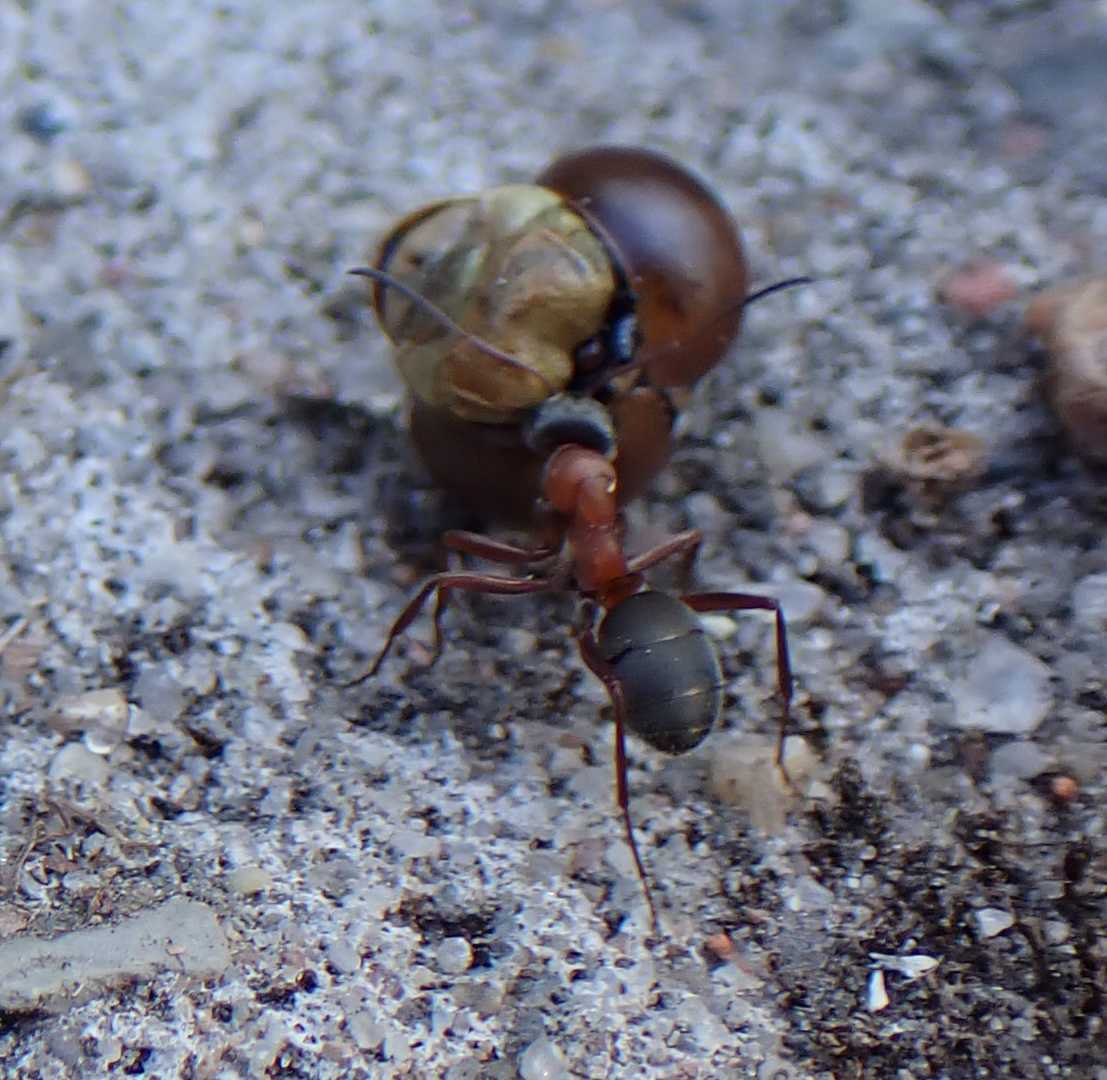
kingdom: Animalia
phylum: Arthropoda
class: Insecta
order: Hymenoptera
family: Formicidae
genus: Formica
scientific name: Formica
